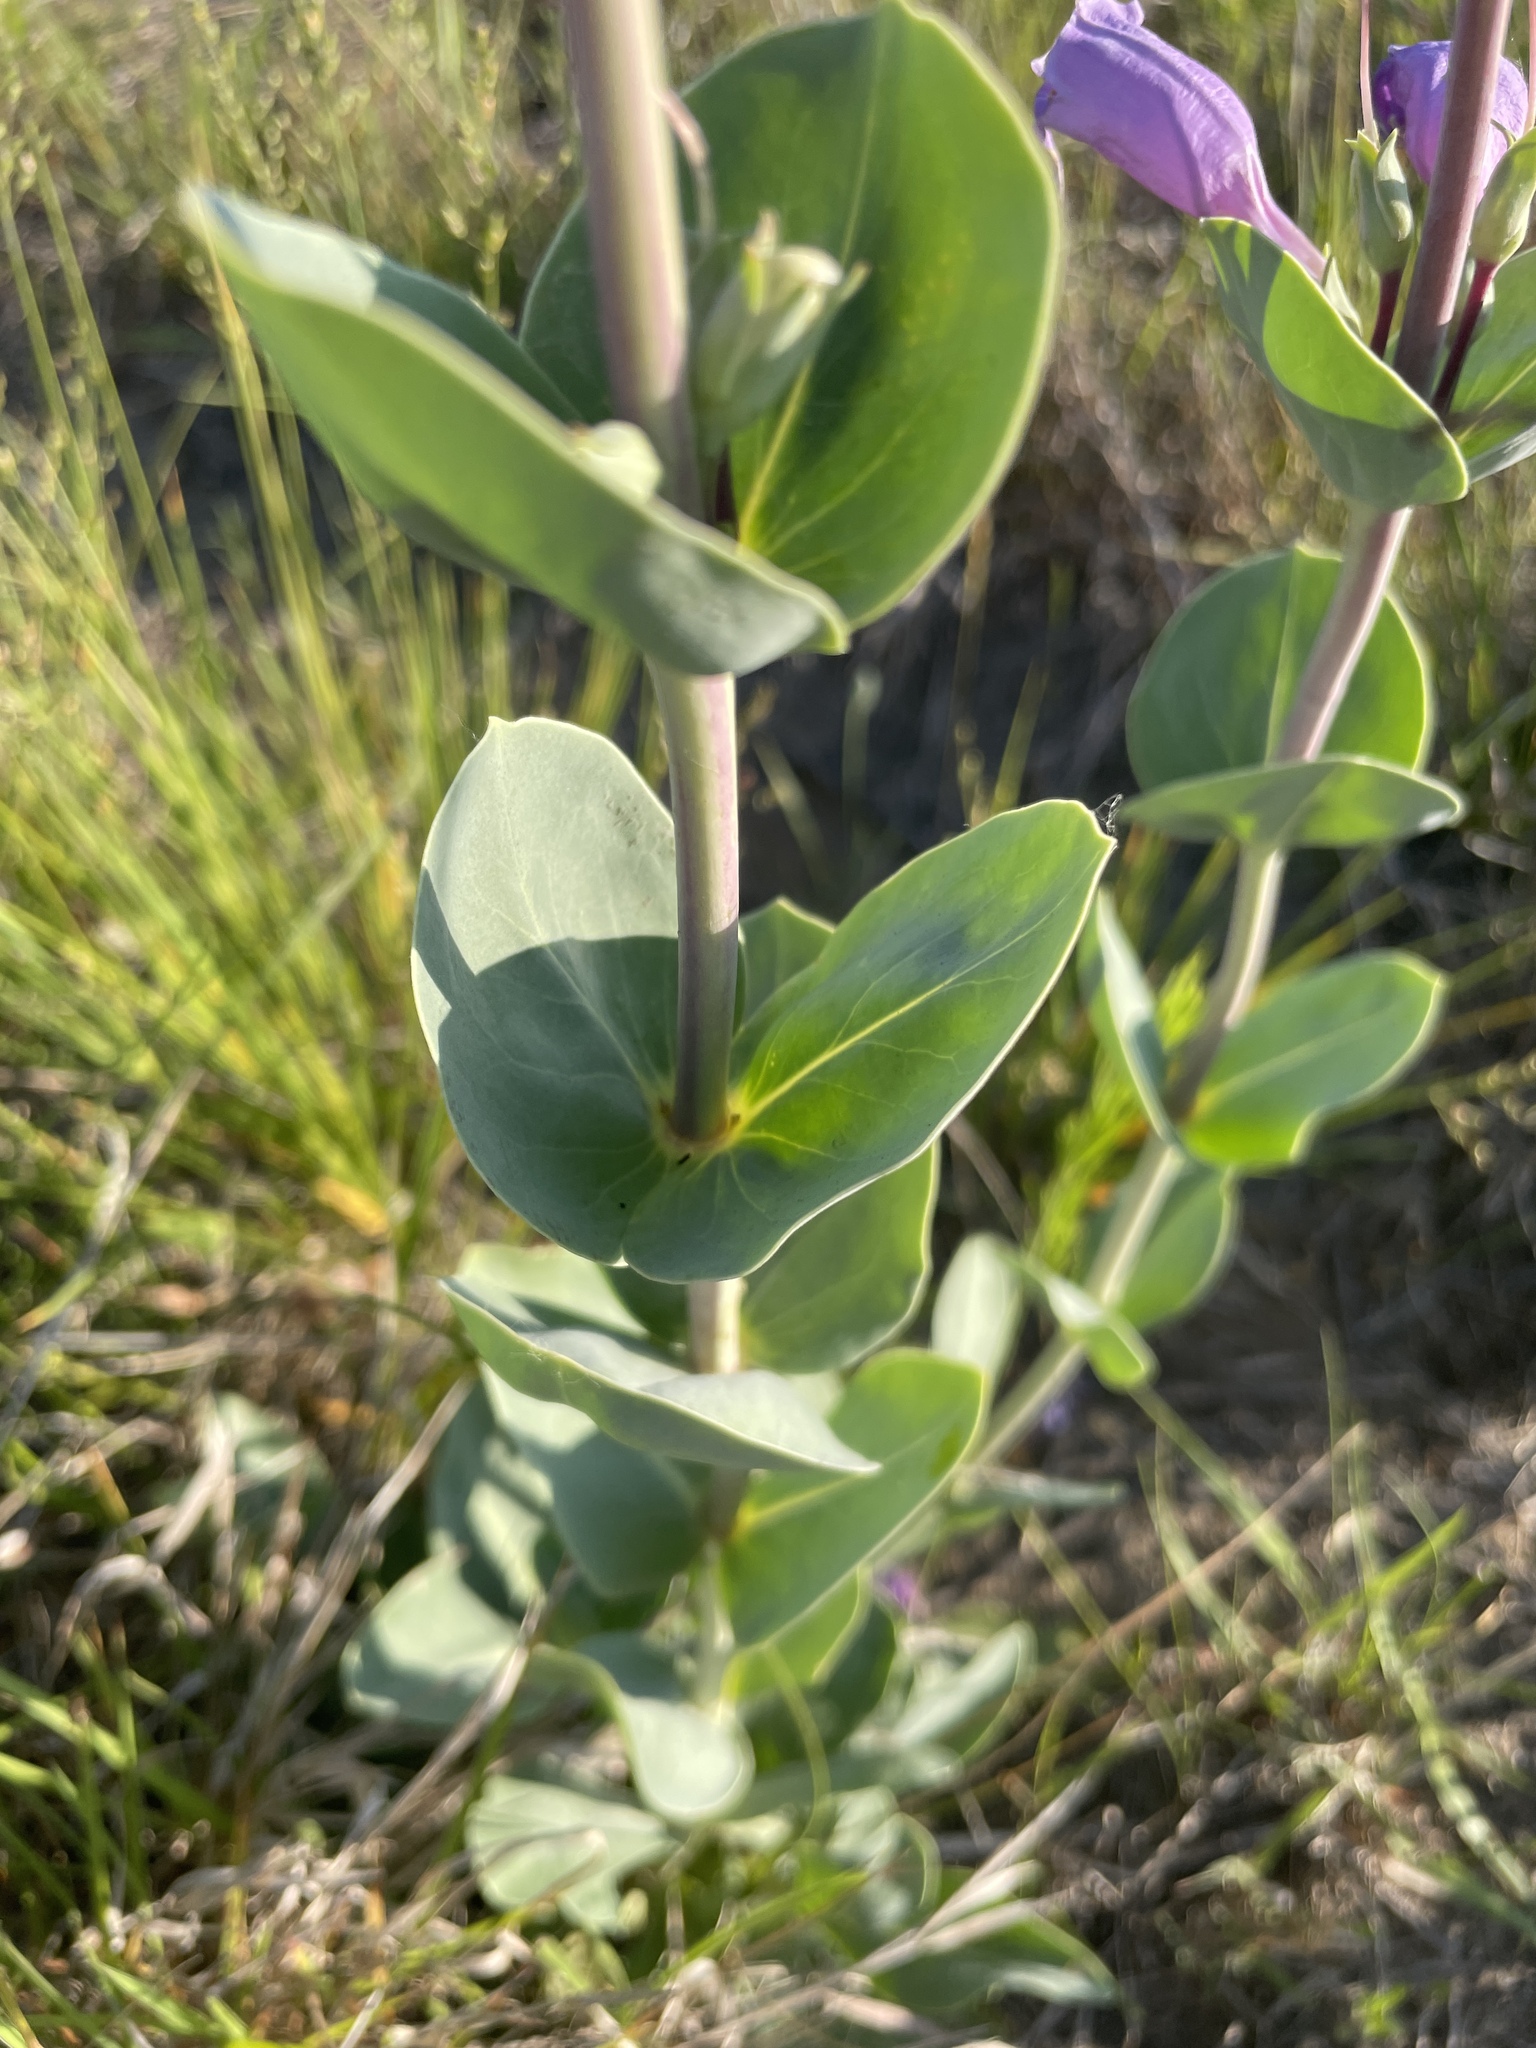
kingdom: Plantae
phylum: Tracheophyta
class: Magnoliopsida
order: Lamiales
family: Plantaginaceae
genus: Penstemon
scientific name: Penstemon
